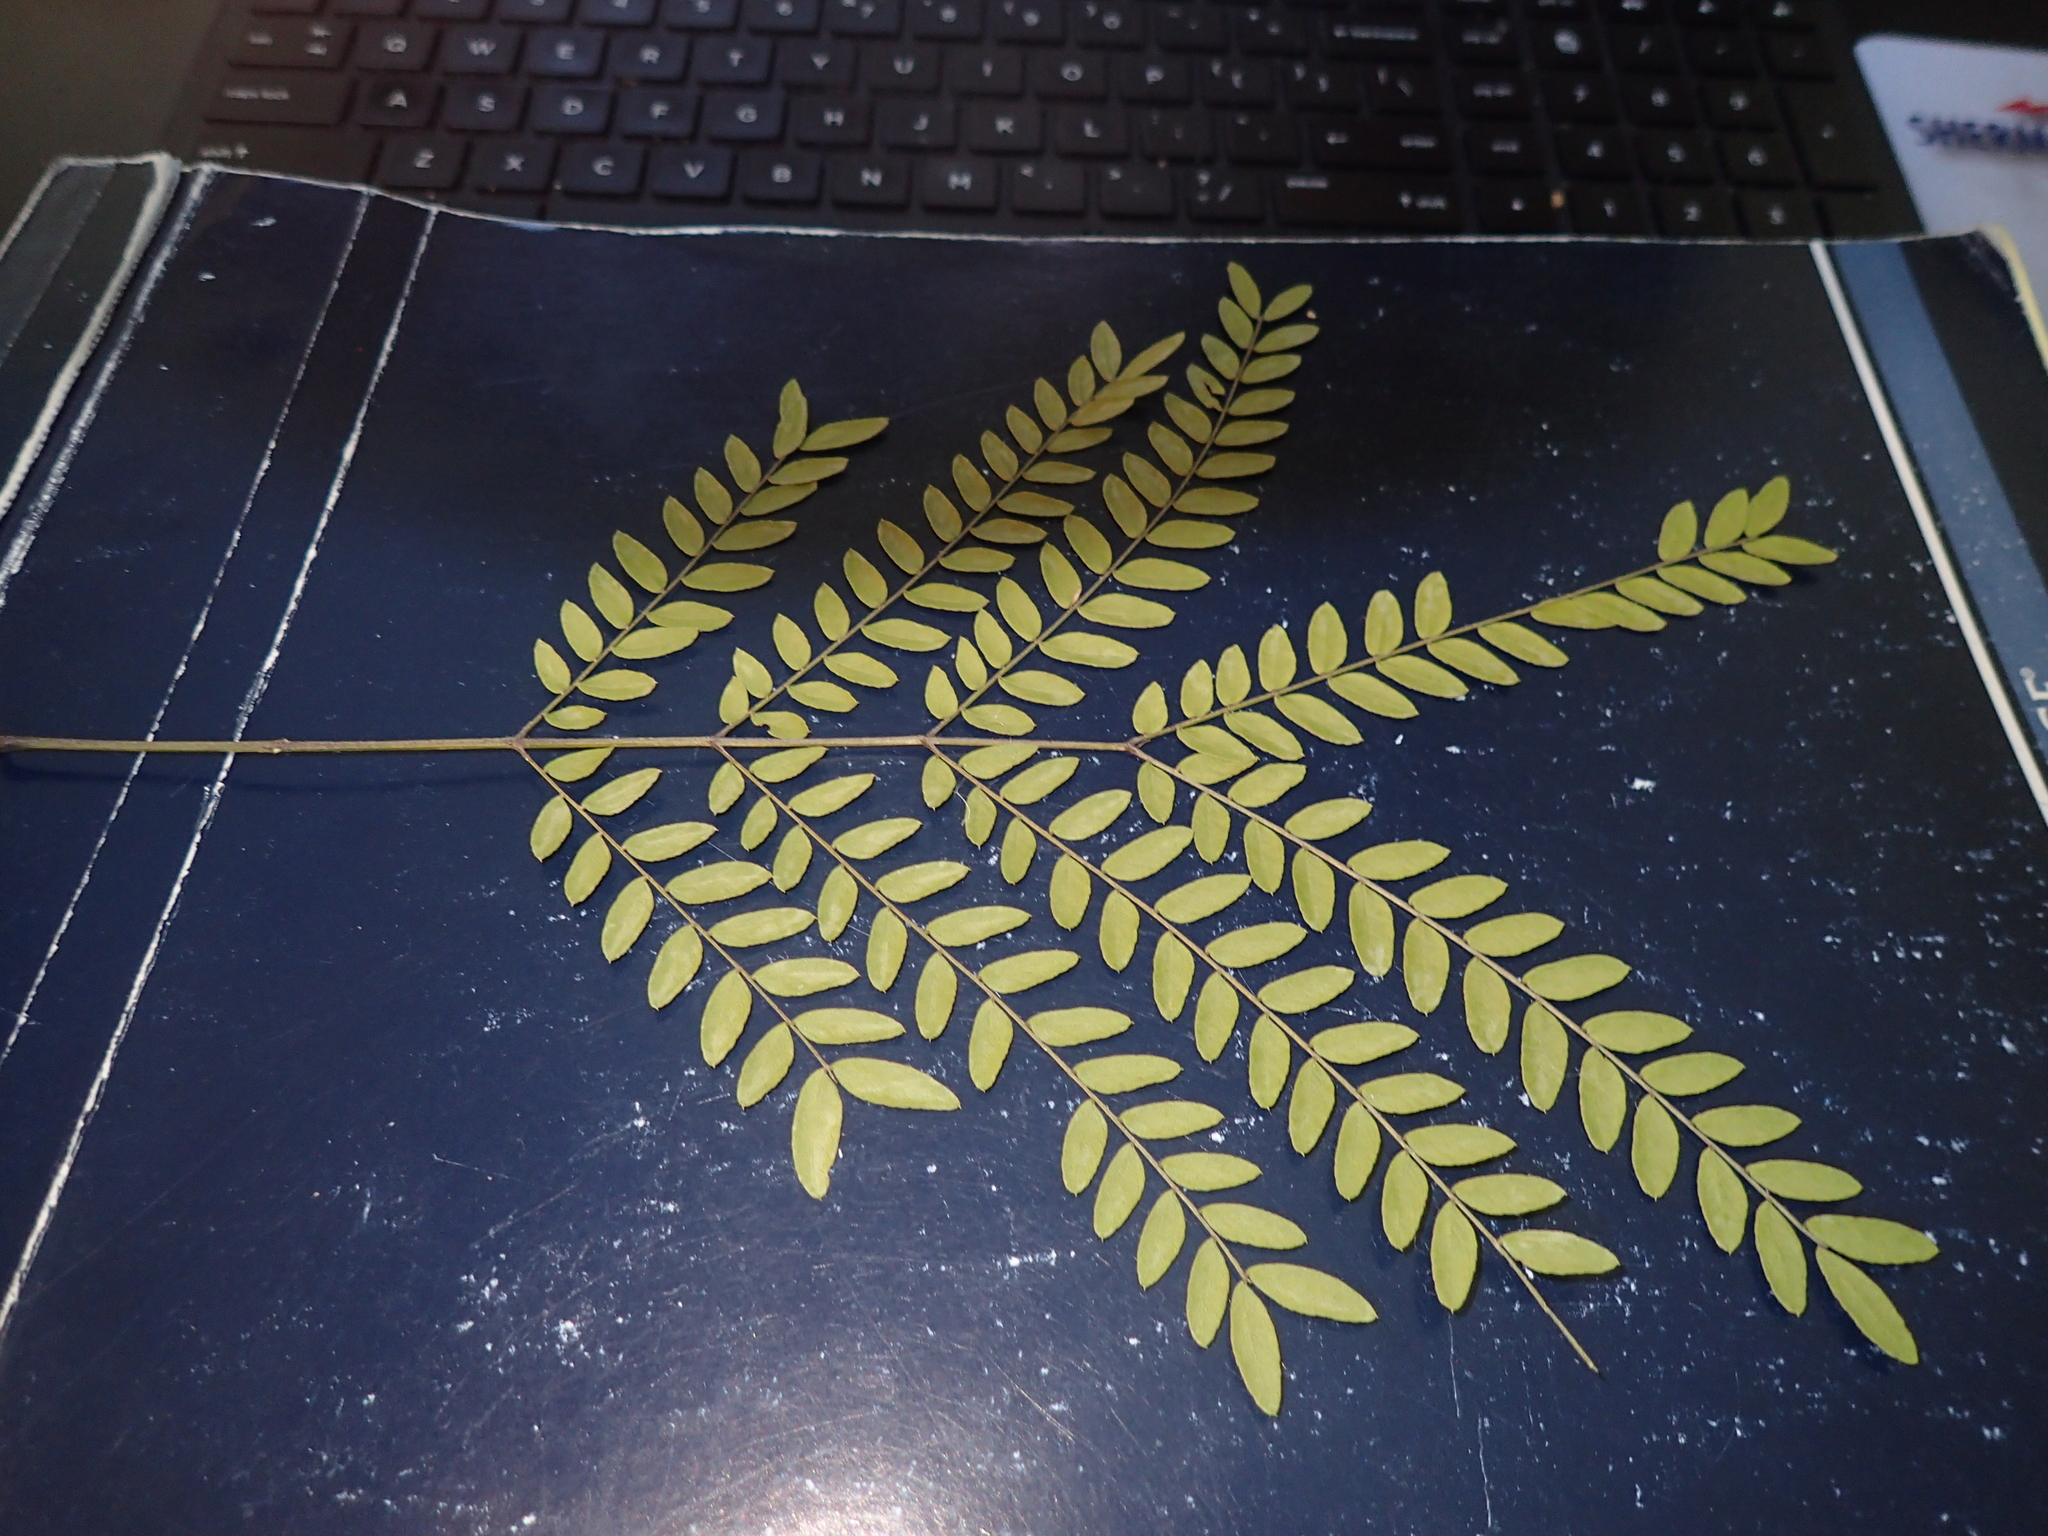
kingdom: Plantae
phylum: Tracheophyta
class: Magnoliopsida
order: Fabales
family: Fabaceae
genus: Gleditsia
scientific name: Gleditsia triacanthos
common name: Common honeylocust
